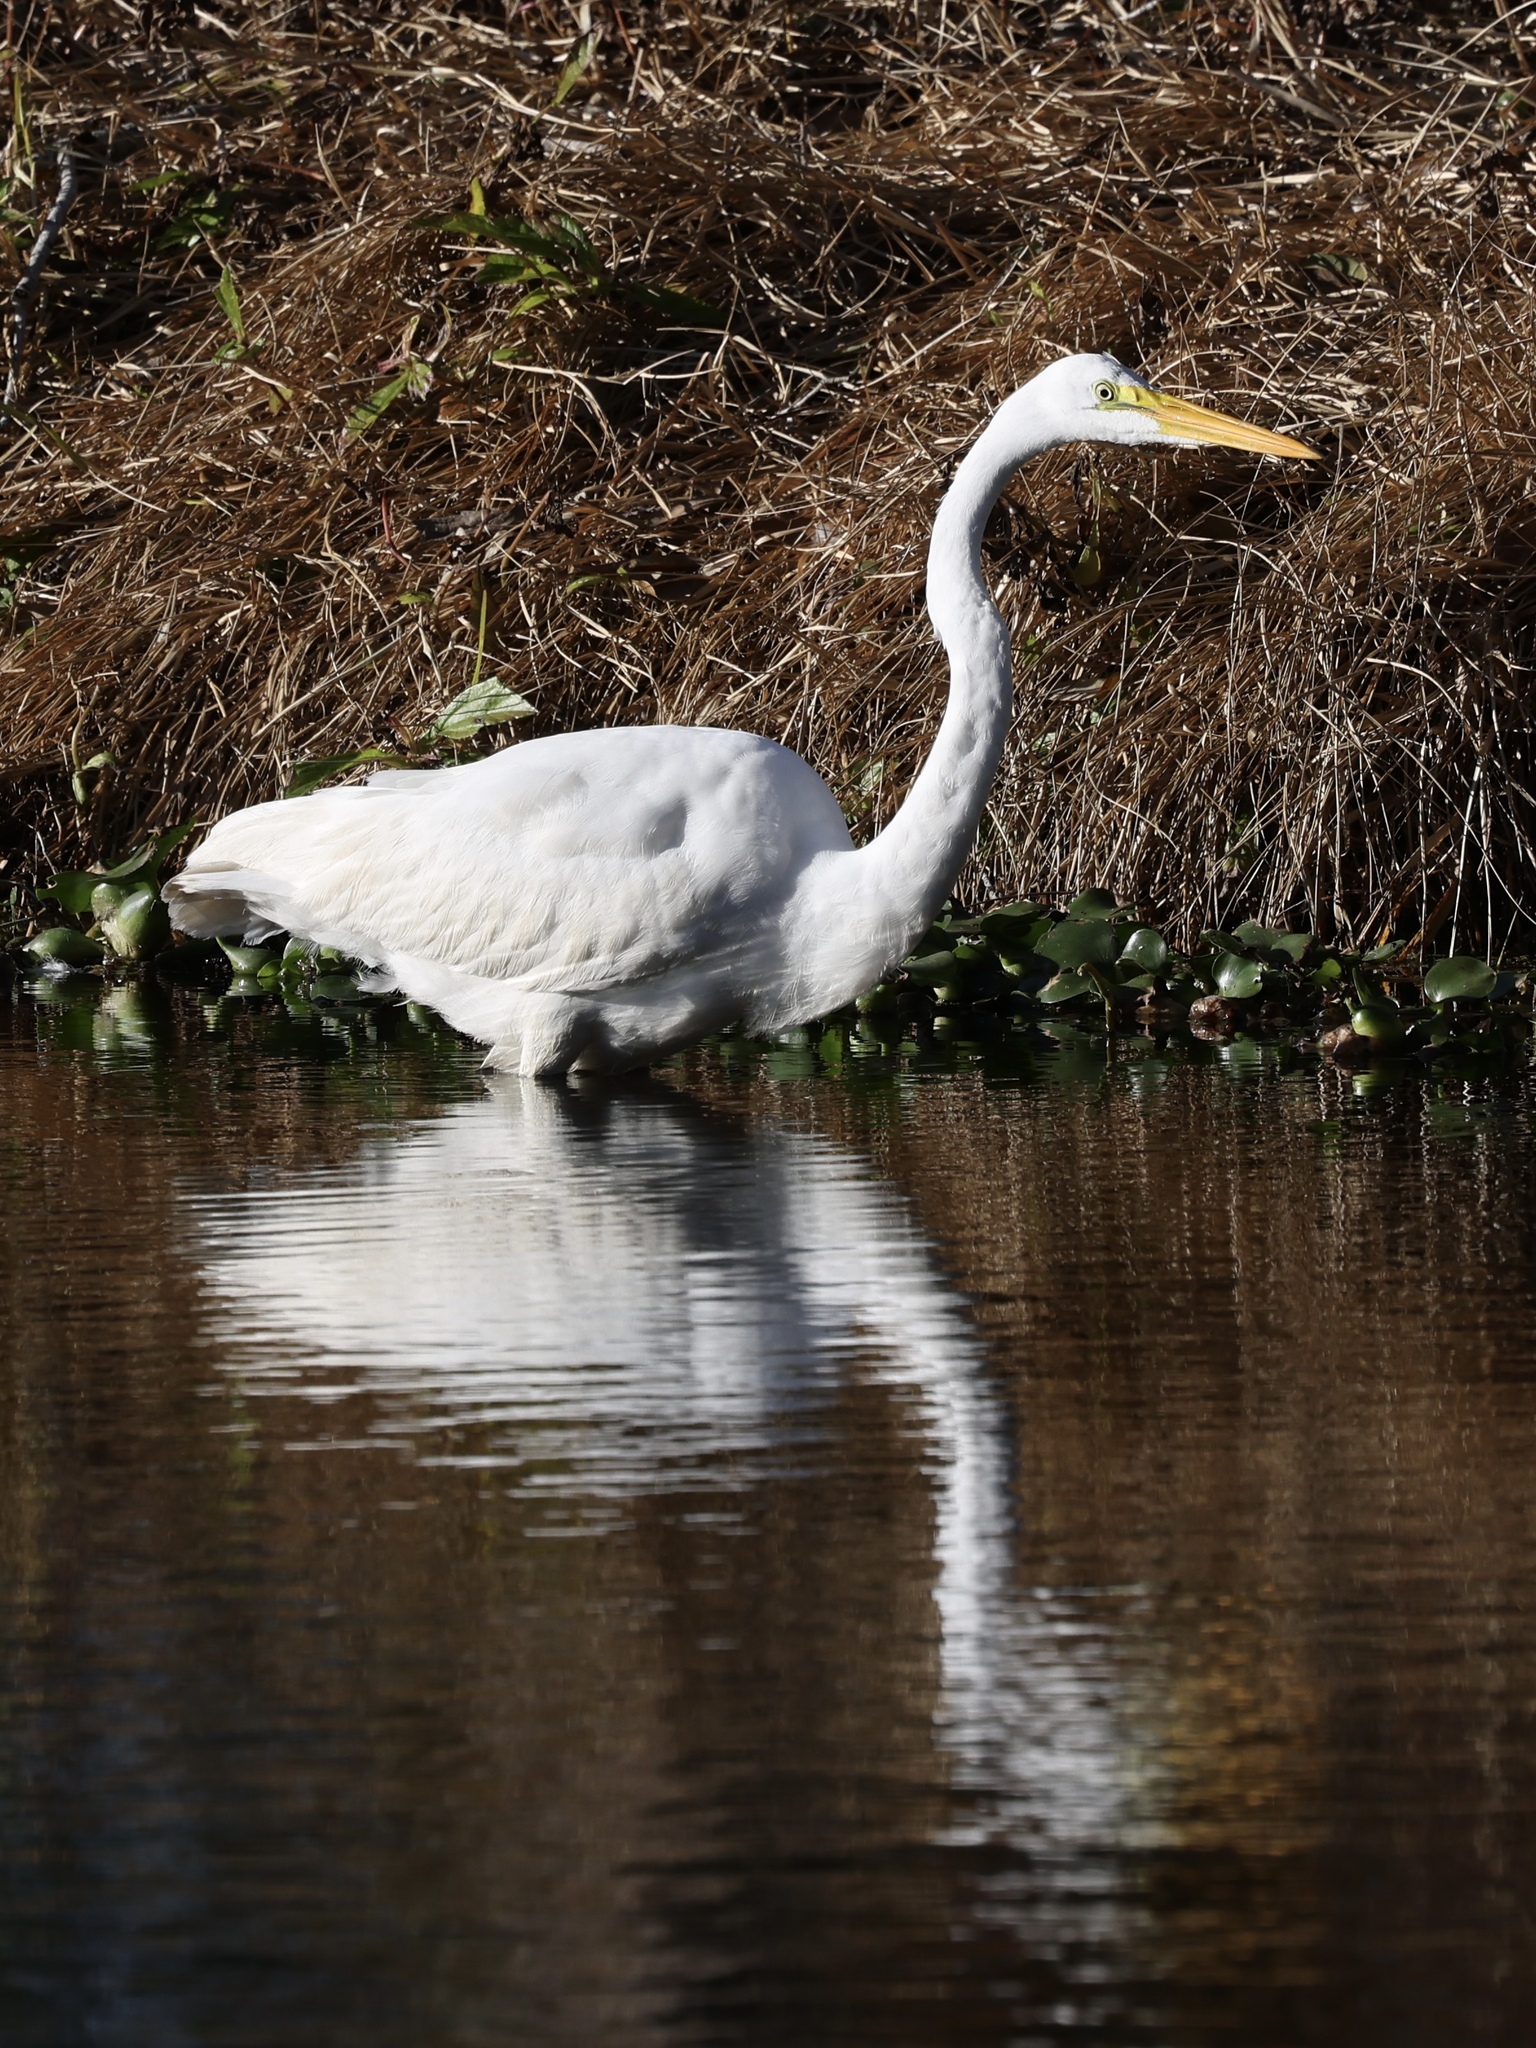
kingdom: Animalia
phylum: Chordata
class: Aves
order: Pelecaniformes
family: Ardeidae
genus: Ardea
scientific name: Ardea alba
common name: Great egret
